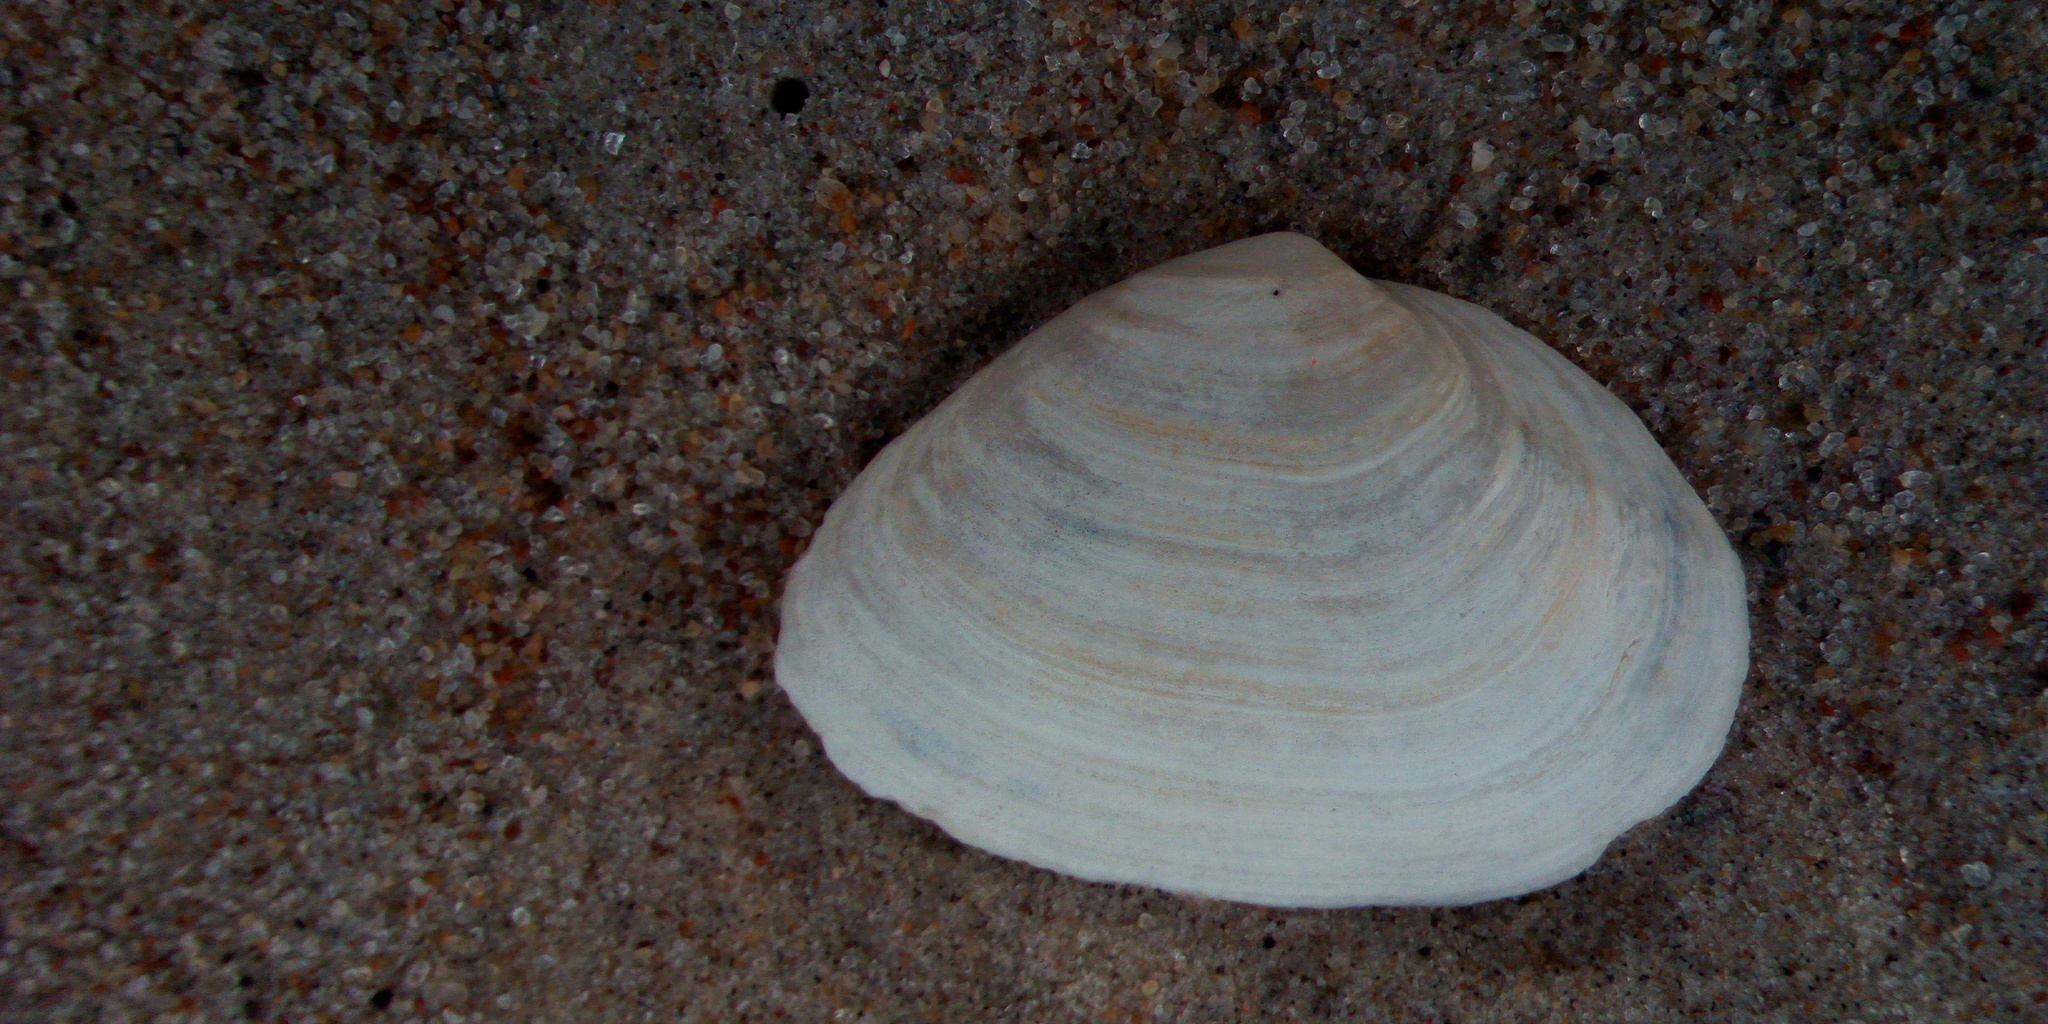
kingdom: Animalia
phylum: Mollusca
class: Bivalvia
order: Myida
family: Myidae
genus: Mya
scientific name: Mya arenaria
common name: Soft-shelled clam
